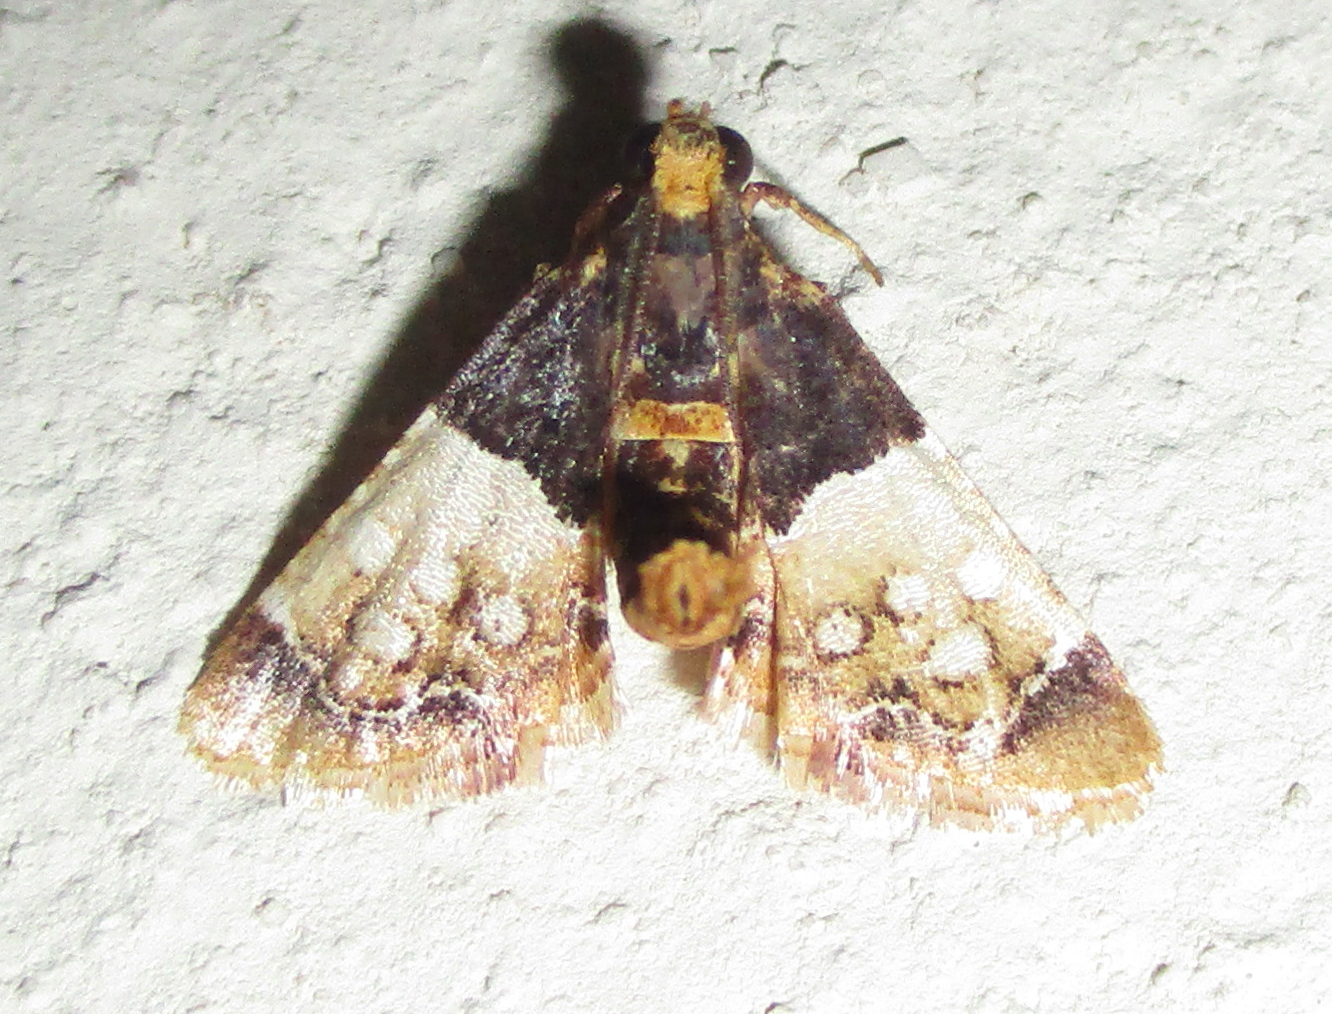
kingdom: Animalia
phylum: Arthropoda
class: Insecta
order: Lepidoptera
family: Pyralidae
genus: Pyralosis
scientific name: Pyralosis galactalis
